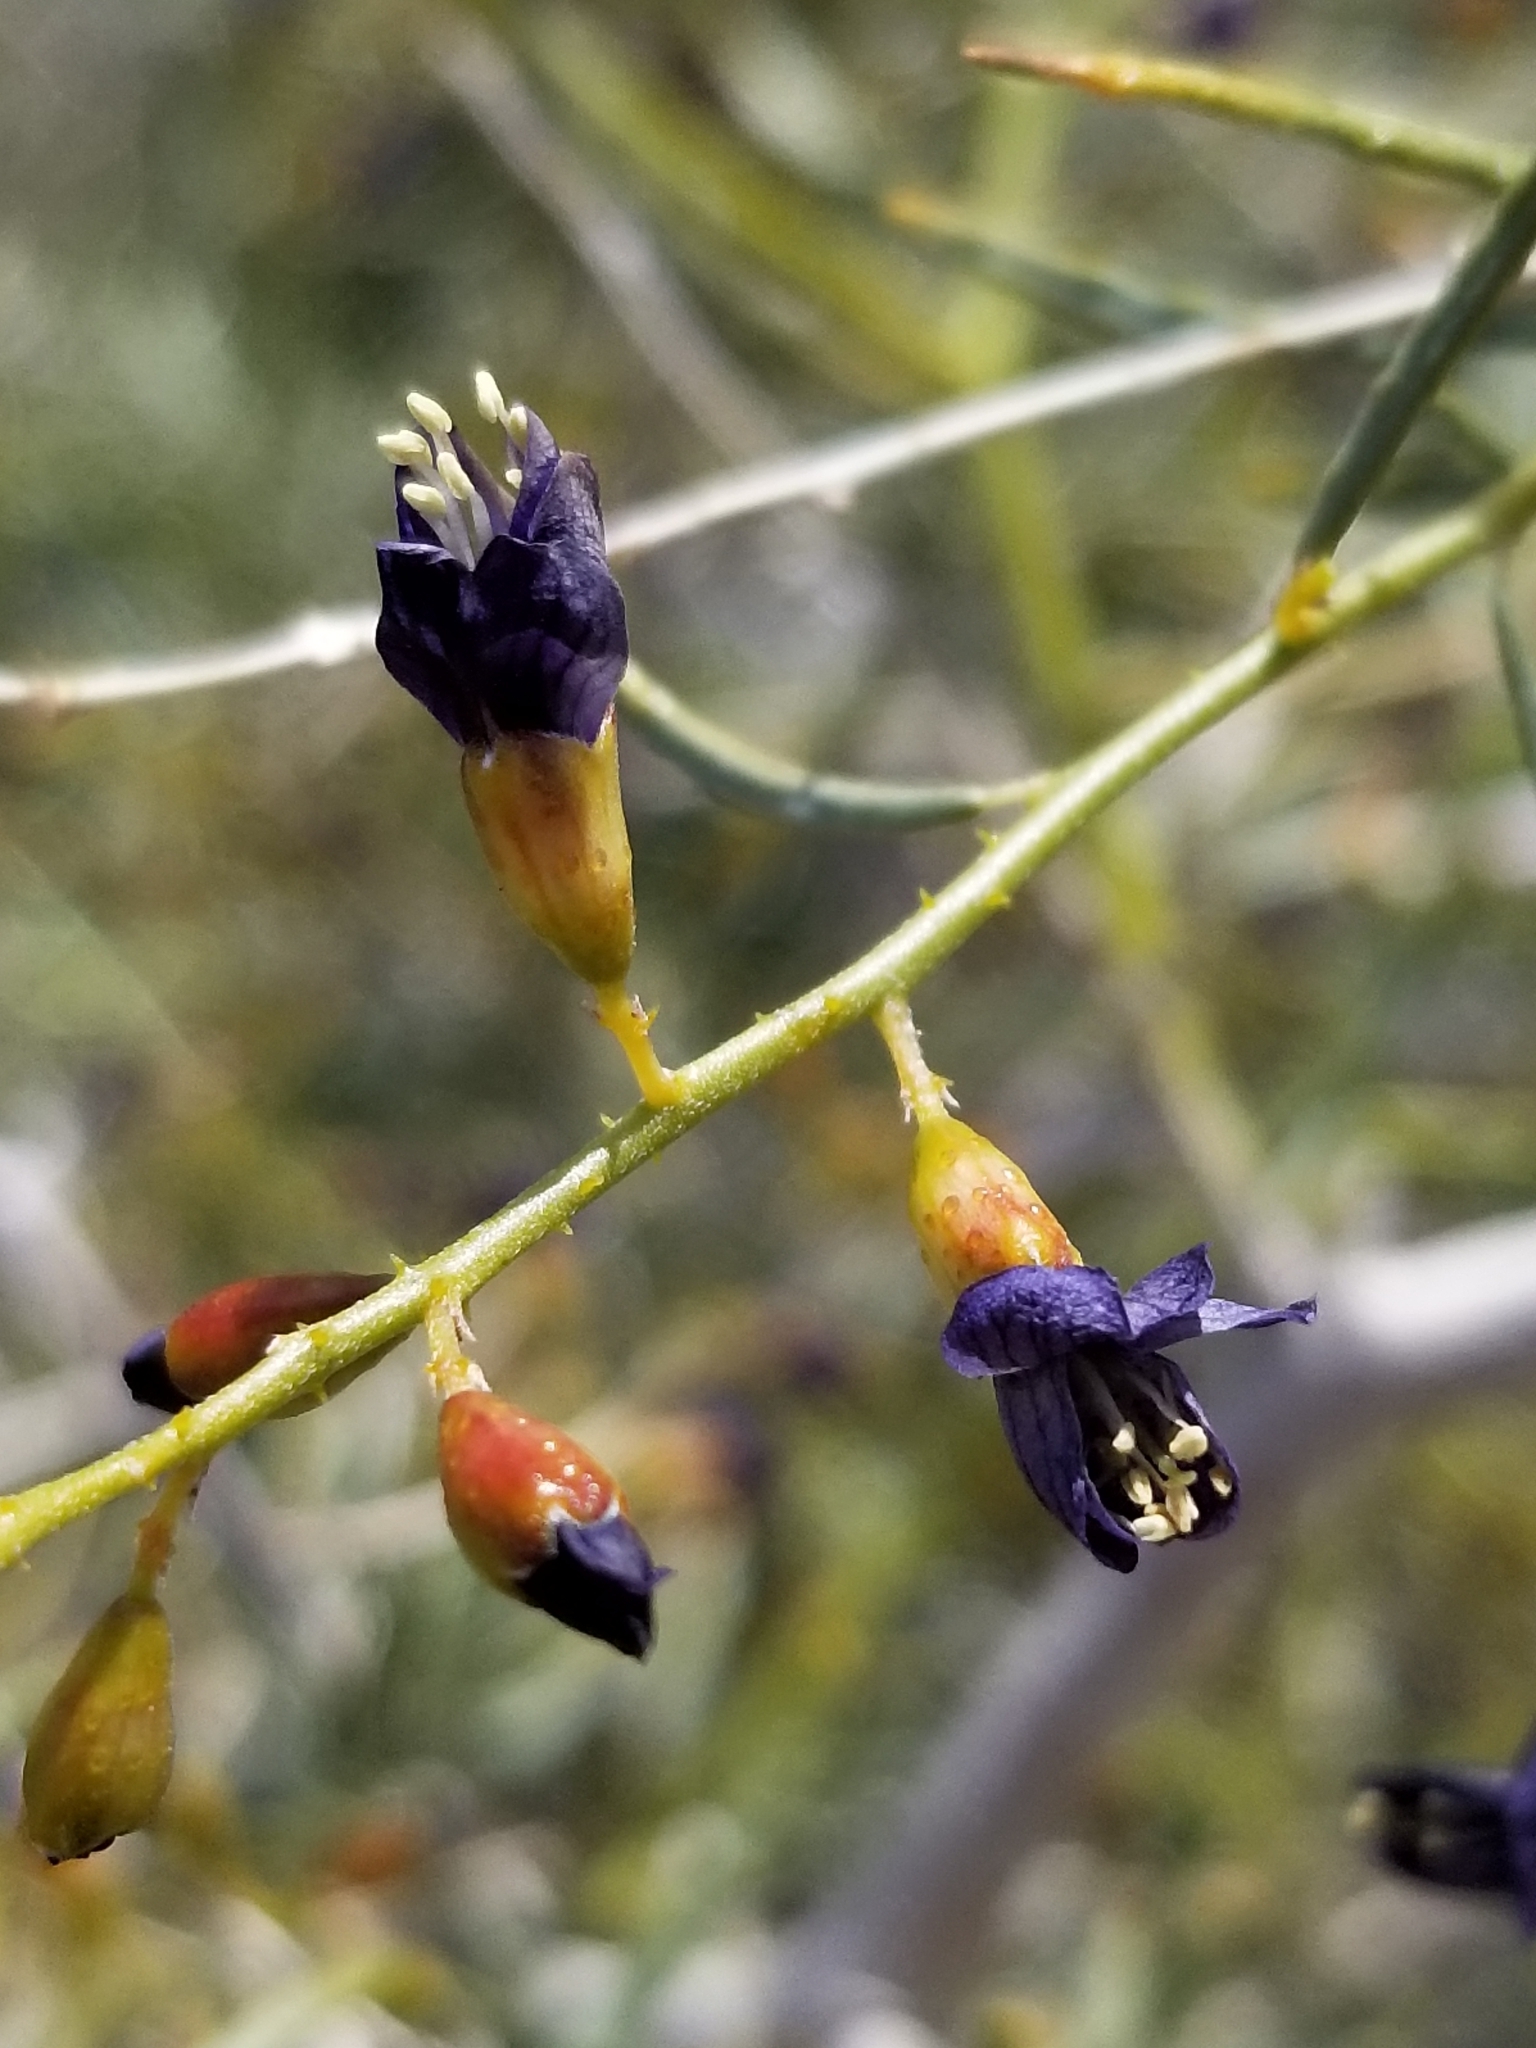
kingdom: Plantae
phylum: Tracheophyta
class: Magnoliopsida
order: Fabales
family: Fabaceae
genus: Psorothamnus
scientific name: Psorothamnus schottii
